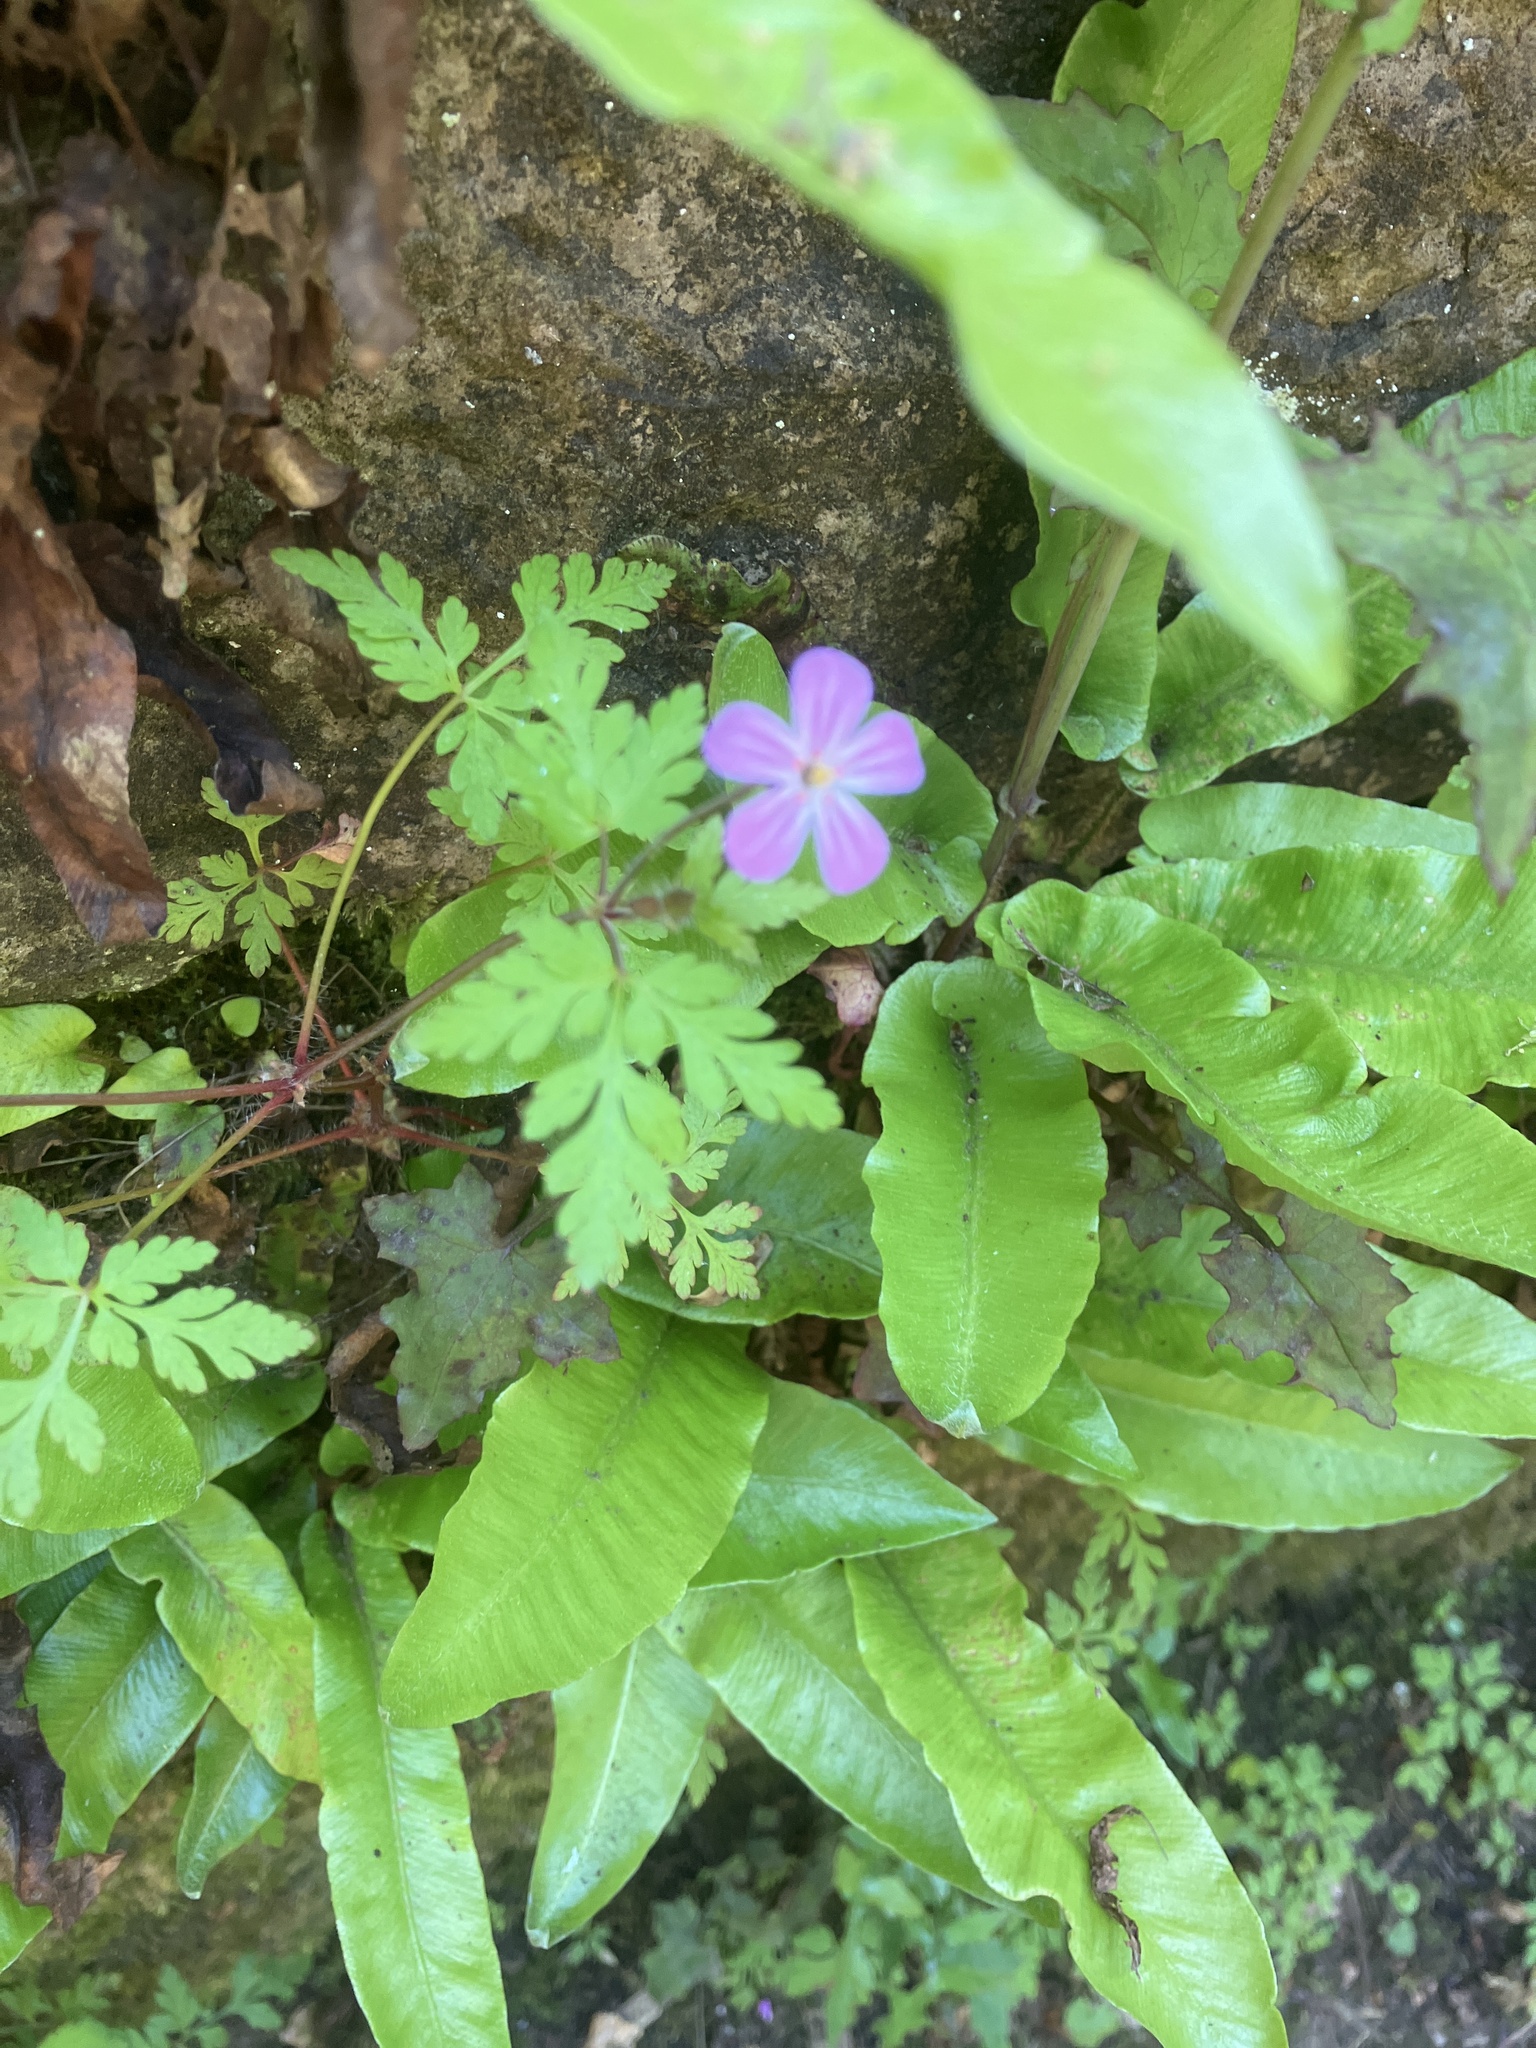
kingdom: Plantae
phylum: Tracheophyta
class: Magnoliopsida
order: Geraniales
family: Geraniaceae
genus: Geranium
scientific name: Geranium robertianum
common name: Herb-robert
